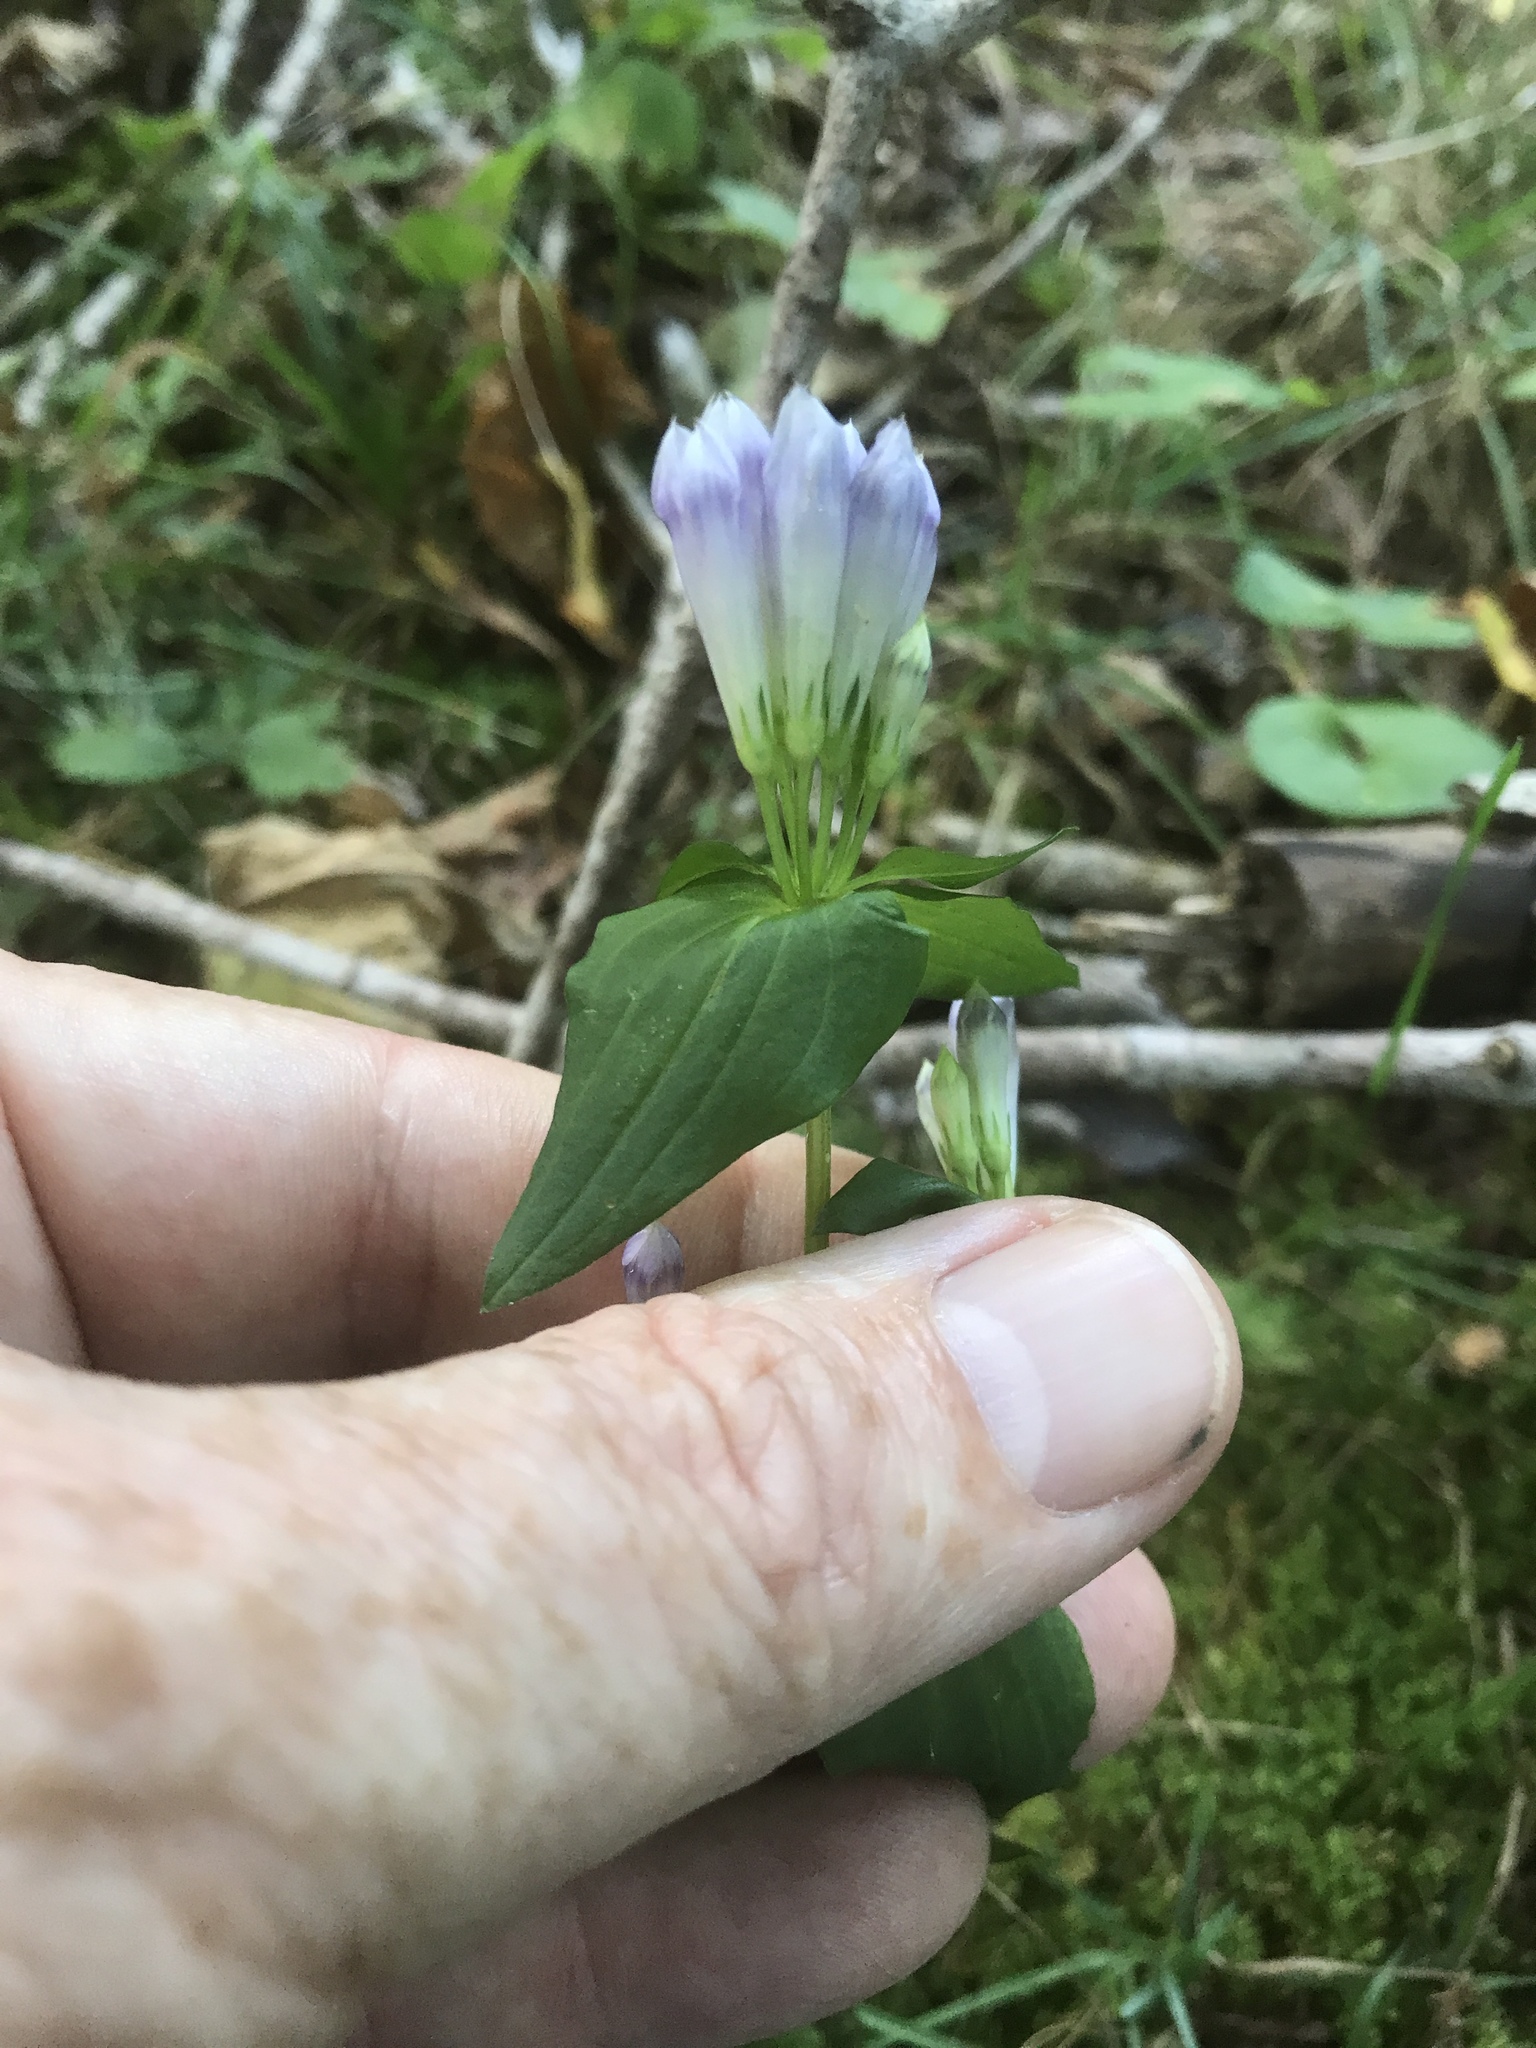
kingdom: Plantae
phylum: Tracheophyta
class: Magnoliopsida
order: Gentianales
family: Gentianaceae
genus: Gentianella
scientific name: Gentianella quinquefolia
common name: Agueweed
